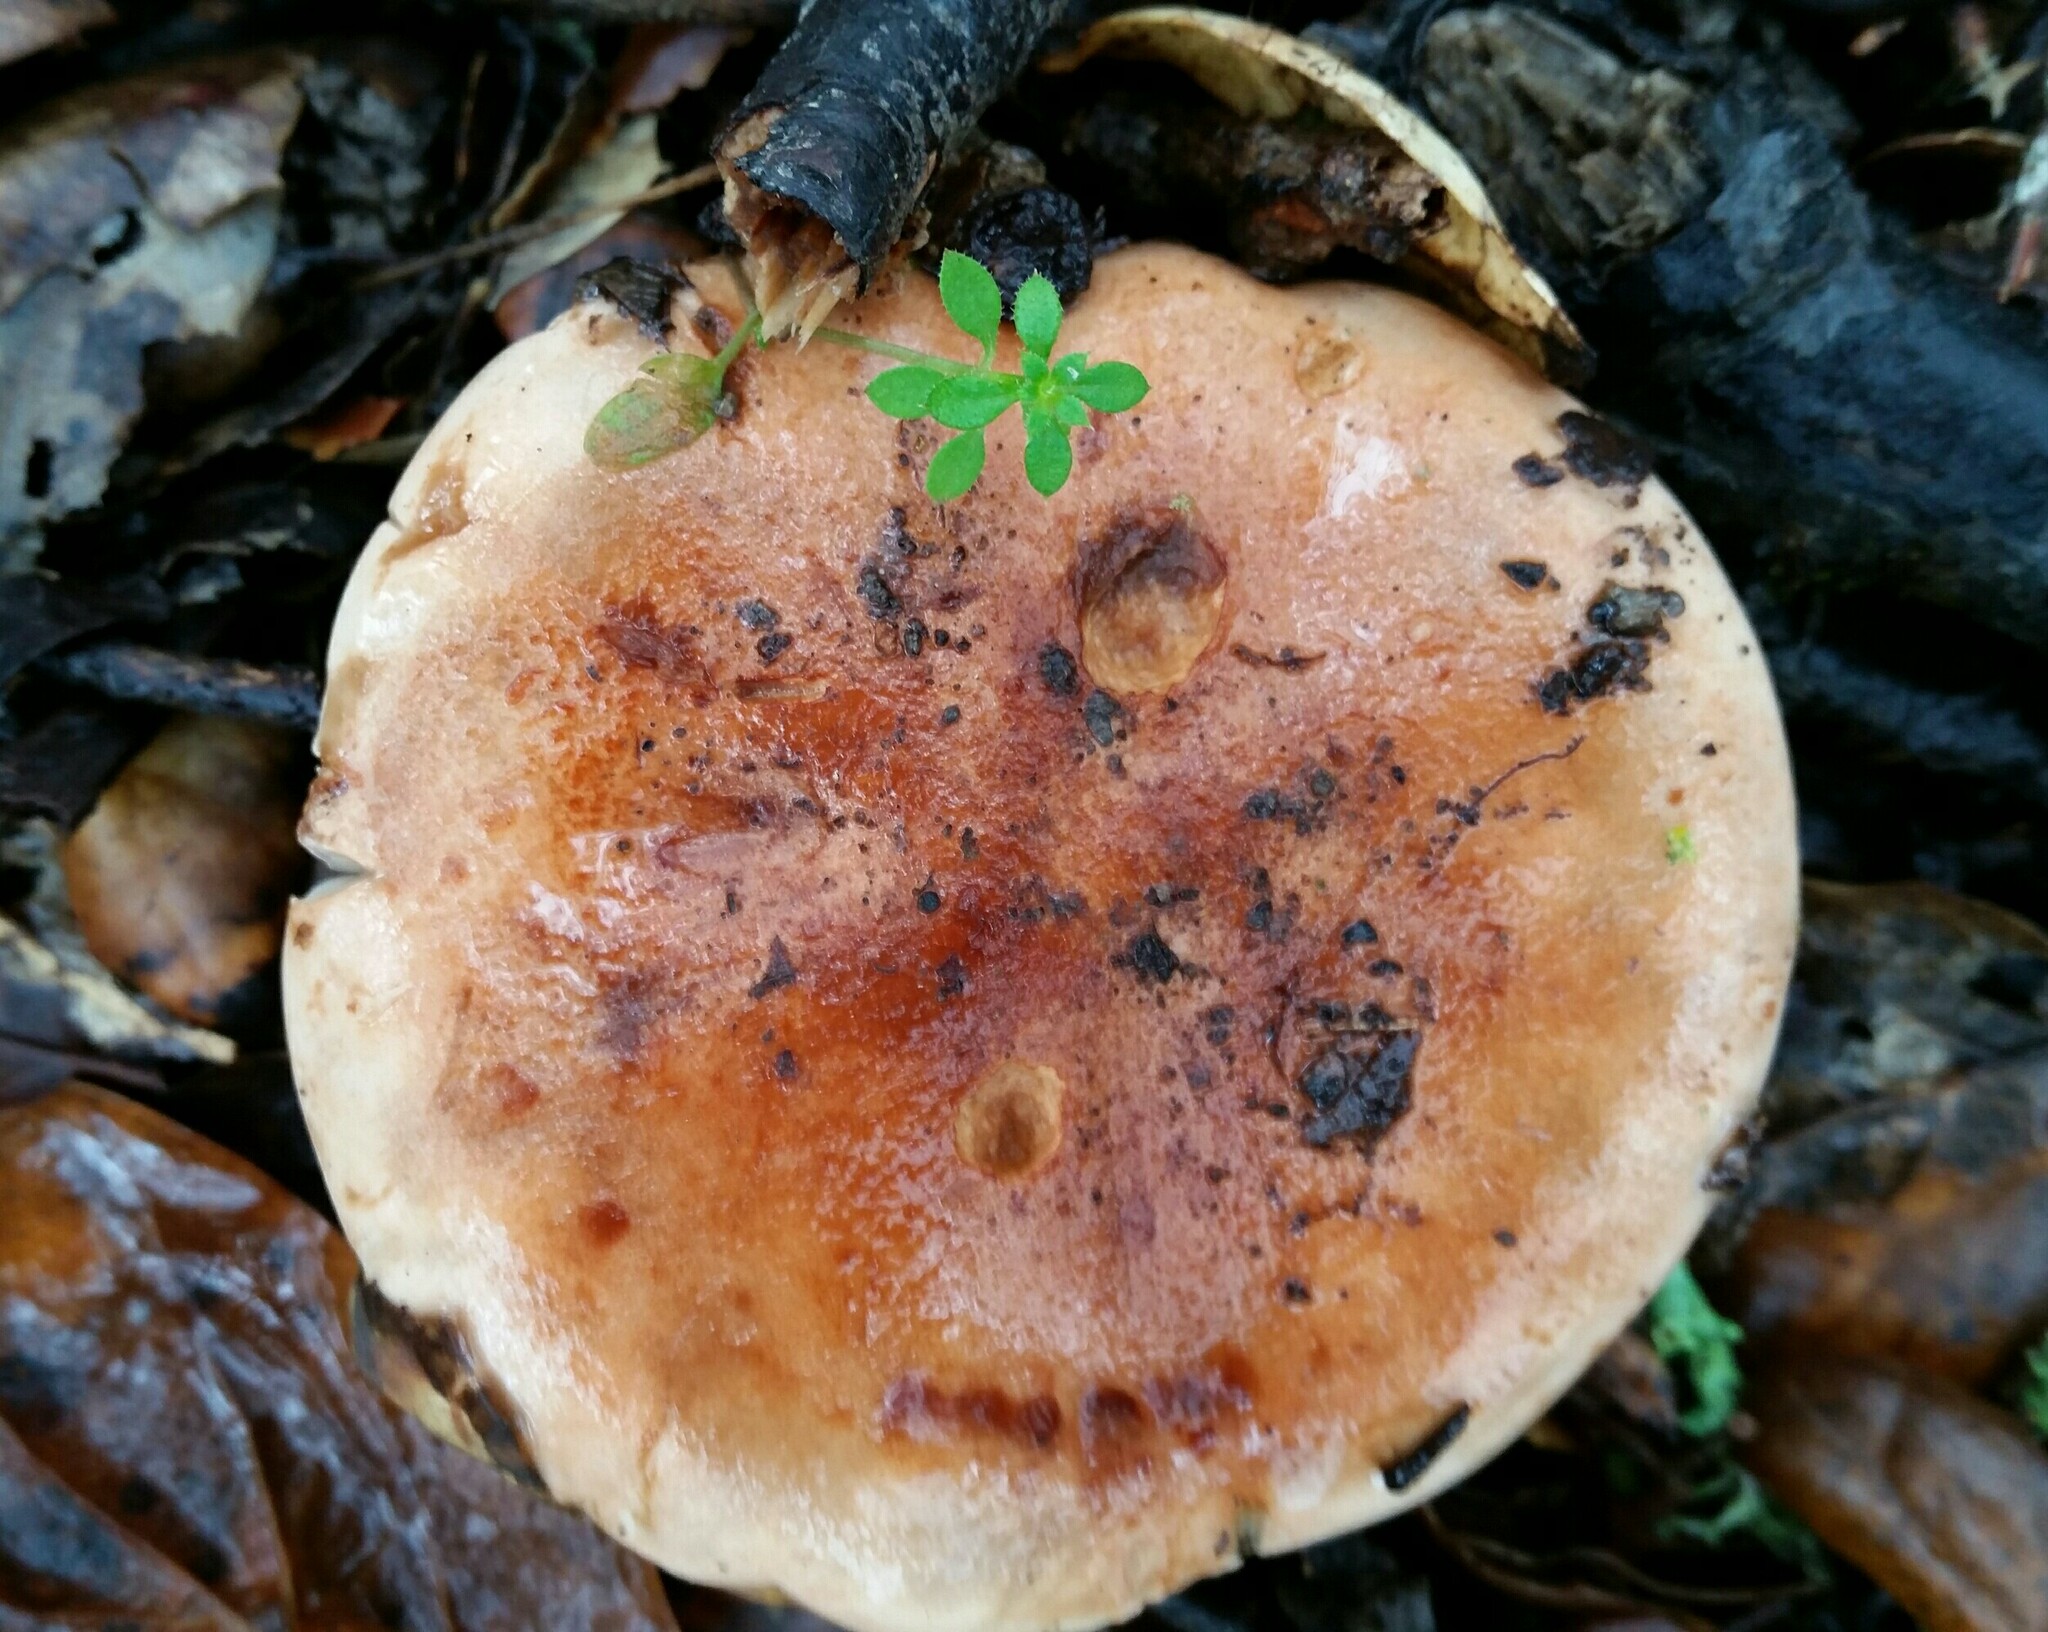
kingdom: Fungi
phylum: Basidiomycota
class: Agaricomycetes
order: Agaricales
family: Tricholomataceae
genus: Melanoleuca
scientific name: Melanoleuca dryophila
